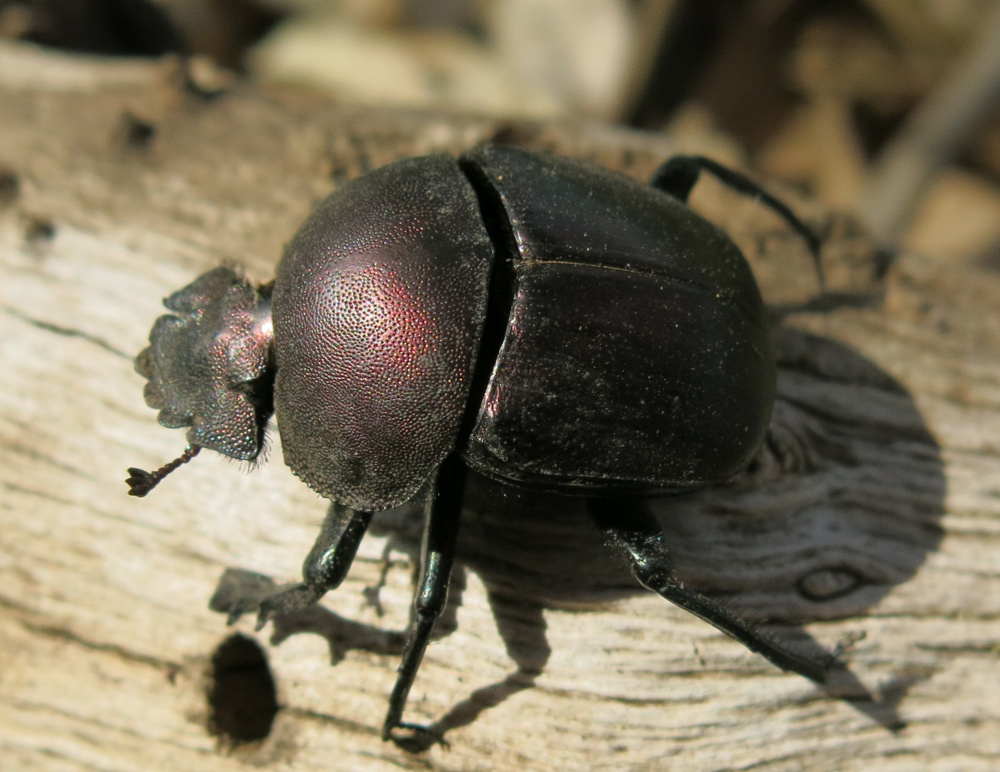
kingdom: Animalia
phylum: Arthropoda
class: Insecta
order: Coleoptera
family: Scarabaeidae
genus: Kheper
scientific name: Kheper nigroaeneus
